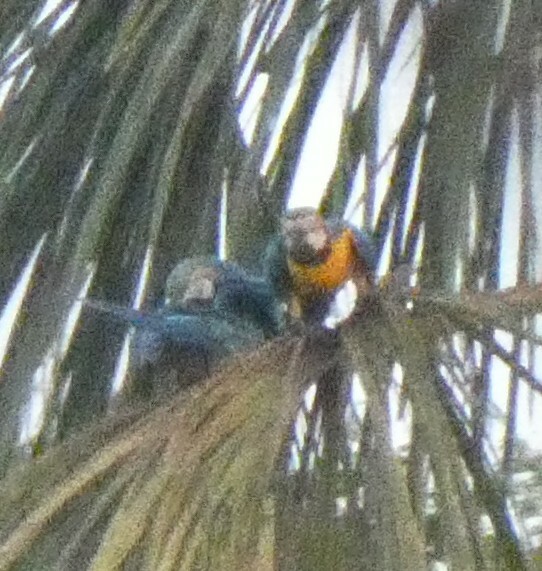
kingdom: Animalia
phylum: Chordata
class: Aves
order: Psittaciformes
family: Psittacidae
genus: Ara
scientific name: Ara ararauna
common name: Blue-and-yellow macaw
